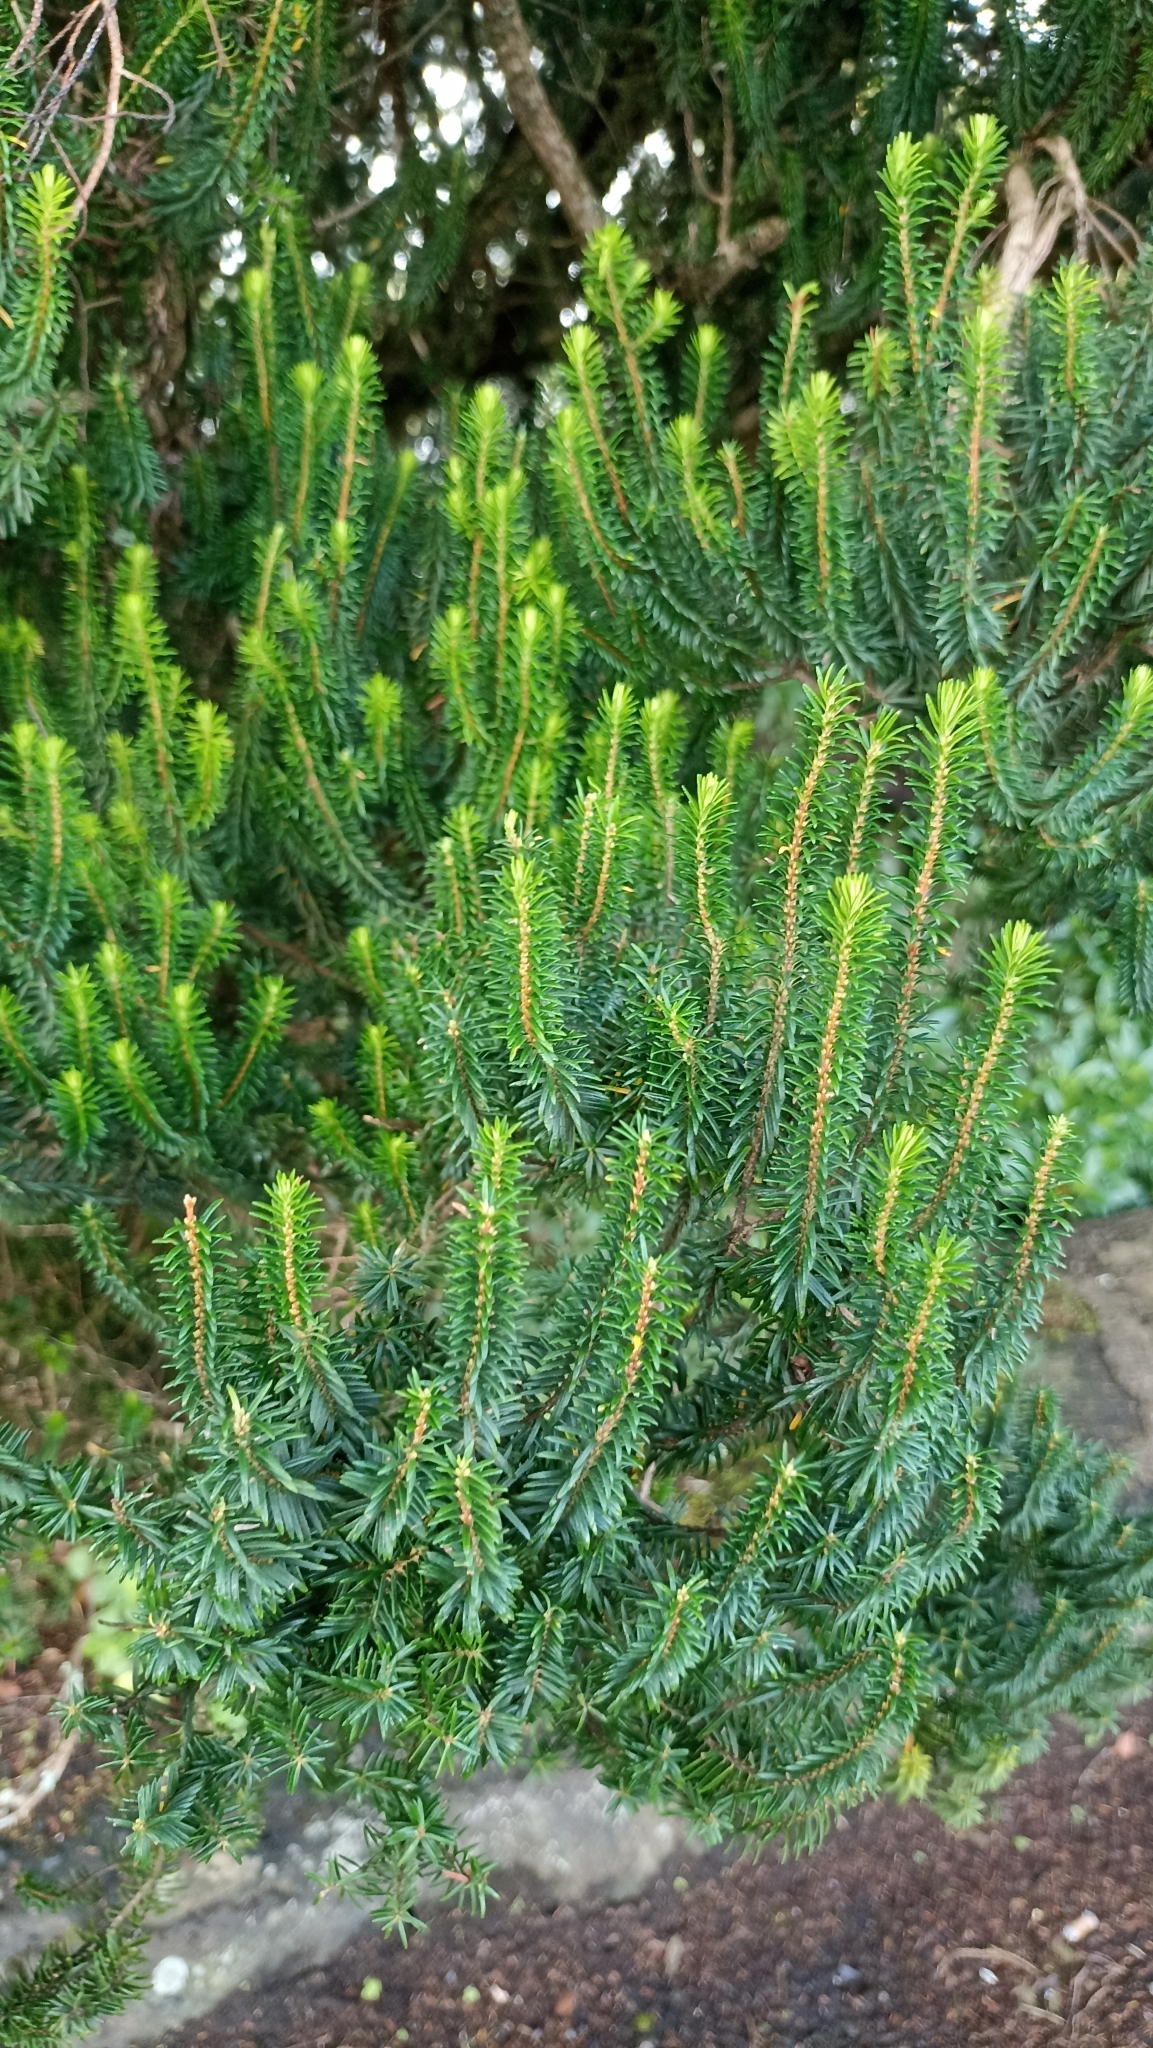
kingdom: Plantae
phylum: Tracheophyta
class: Magnoliopsida
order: Ericales
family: Ericaceae
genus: Erica
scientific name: Erica platycodon
